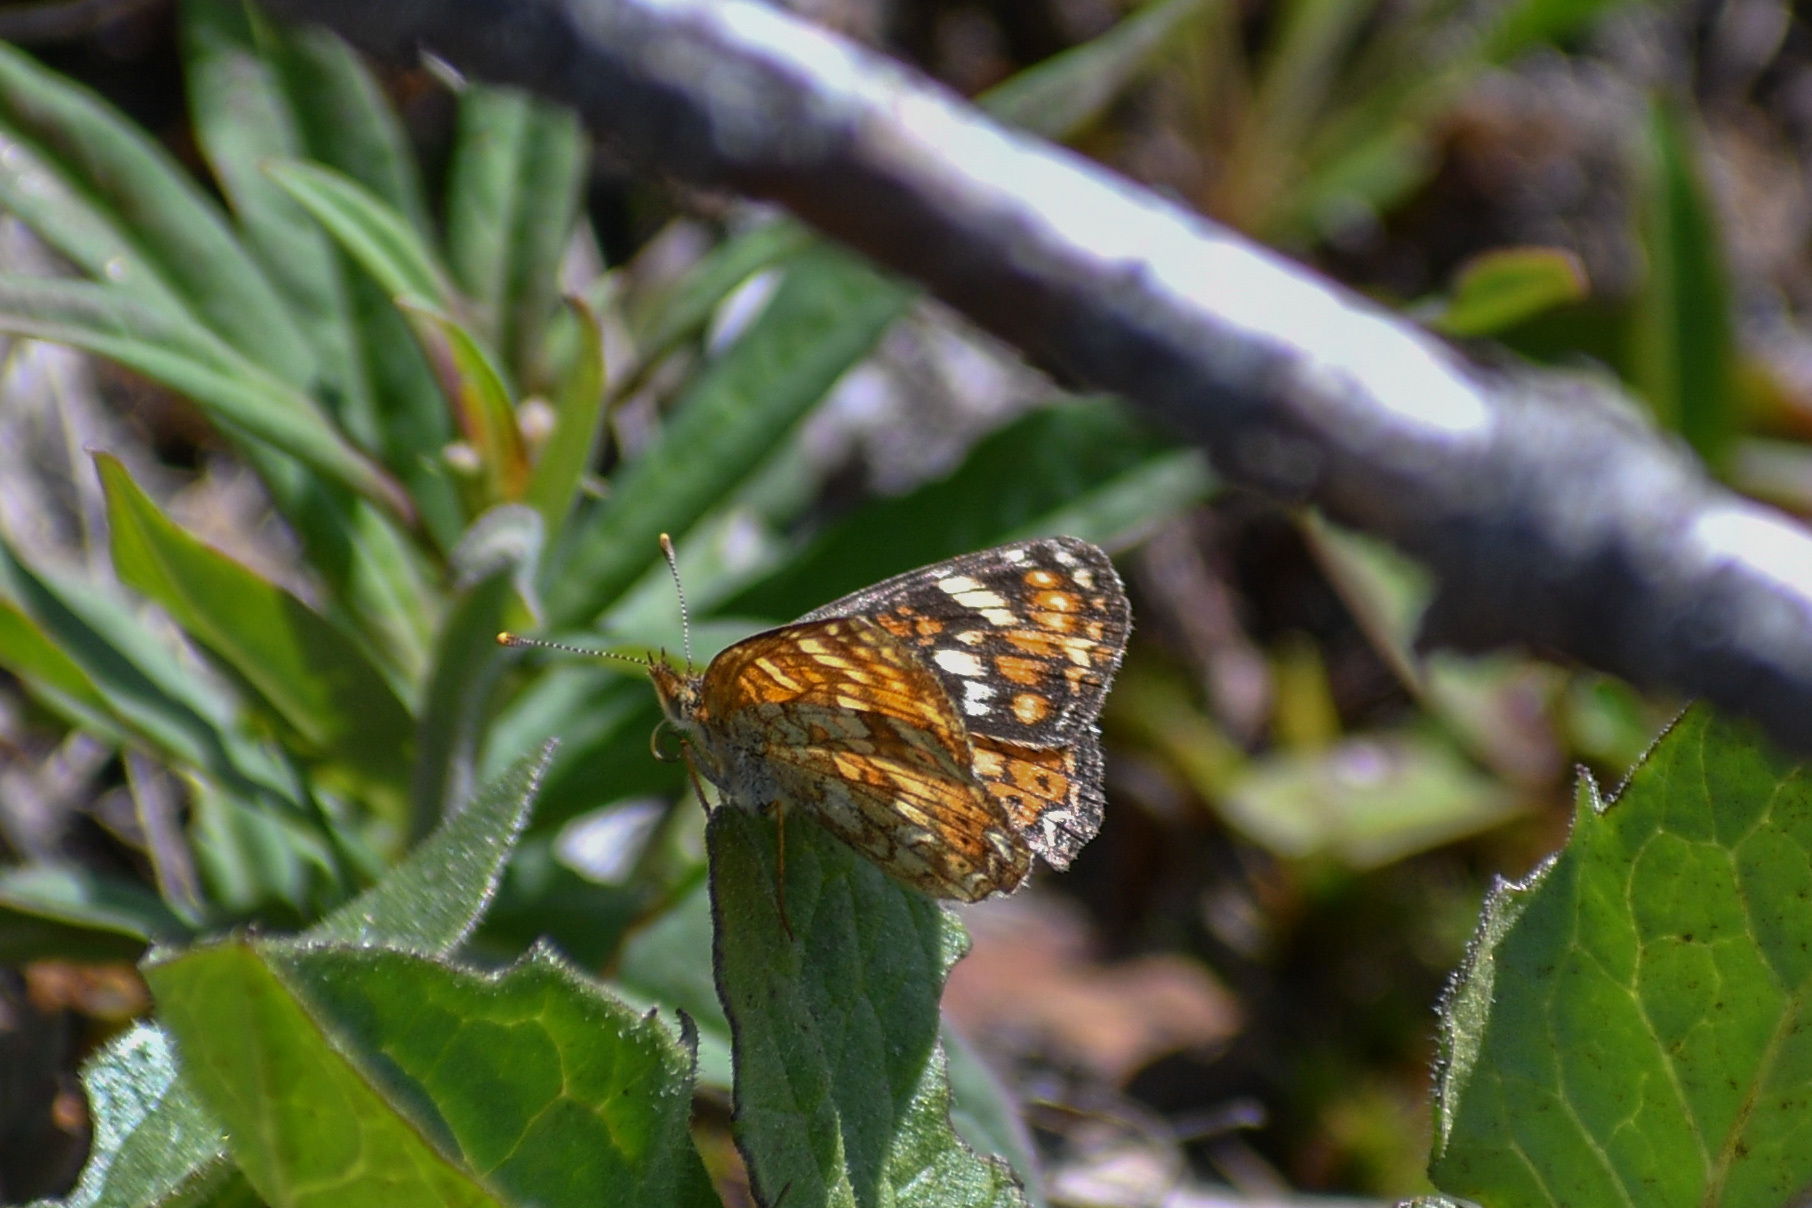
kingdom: Animalia
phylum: Arthropoda
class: Insecta
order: Lepidoptera
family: Nymphalidae
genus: Phyciodes
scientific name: Phyciodes tharos
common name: Pearl crescent
